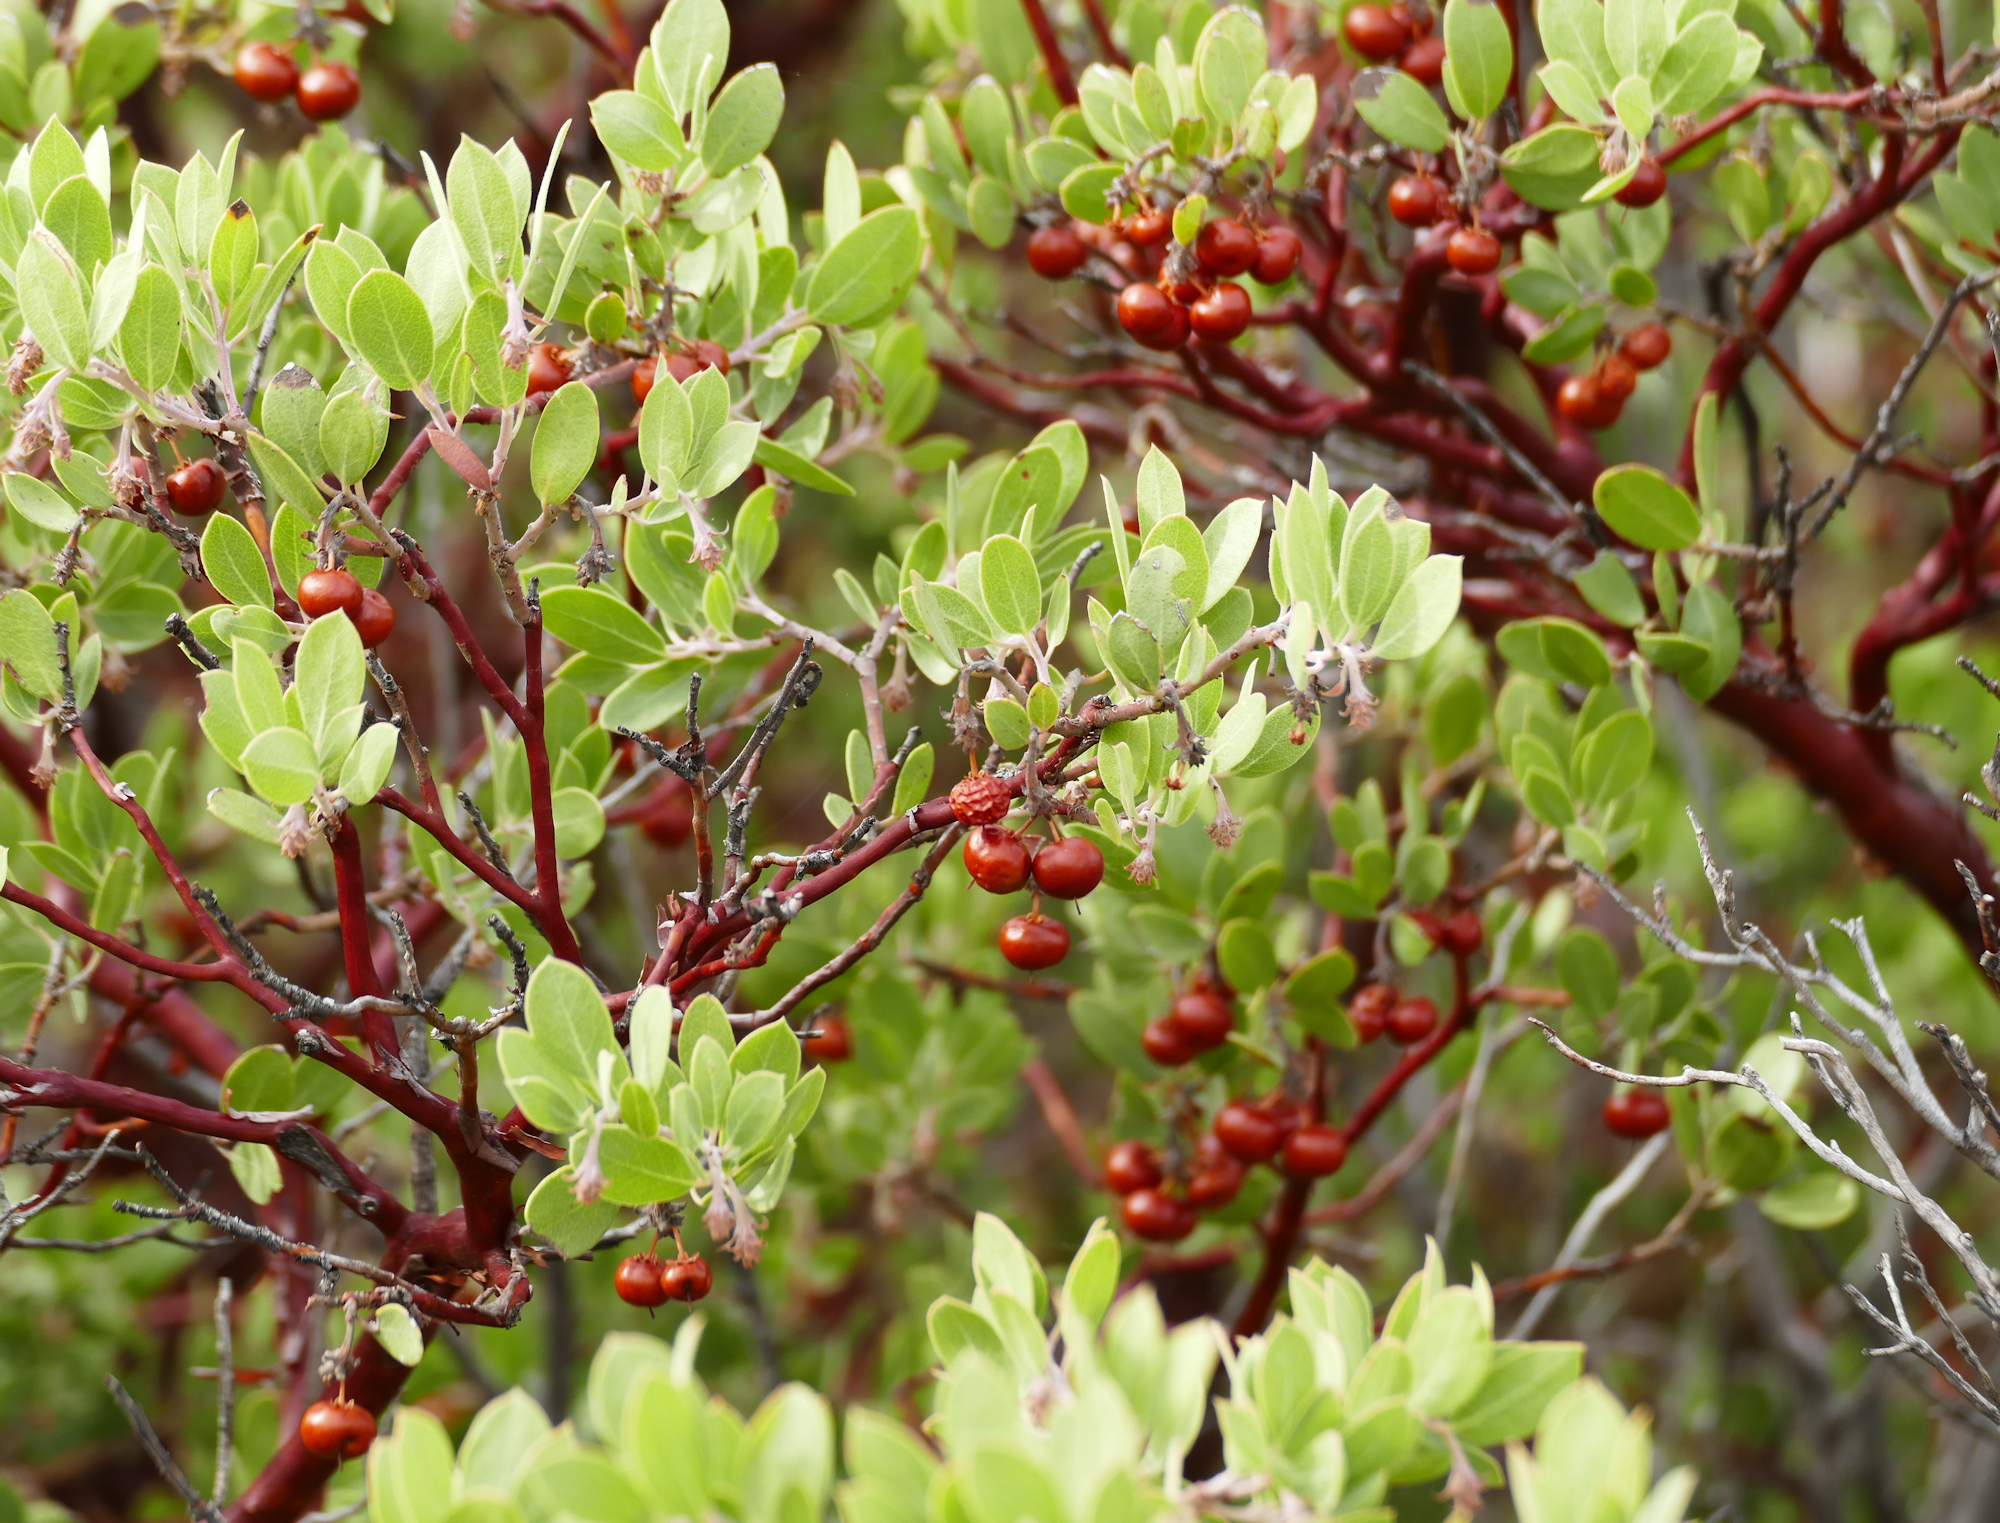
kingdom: Plantae
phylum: Tracheophyta
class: Magnoliopsida
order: Ericales
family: Ericaceae
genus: Arctostaphylos
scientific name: Arctostaphylos pungens
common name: Mexican manzanita
